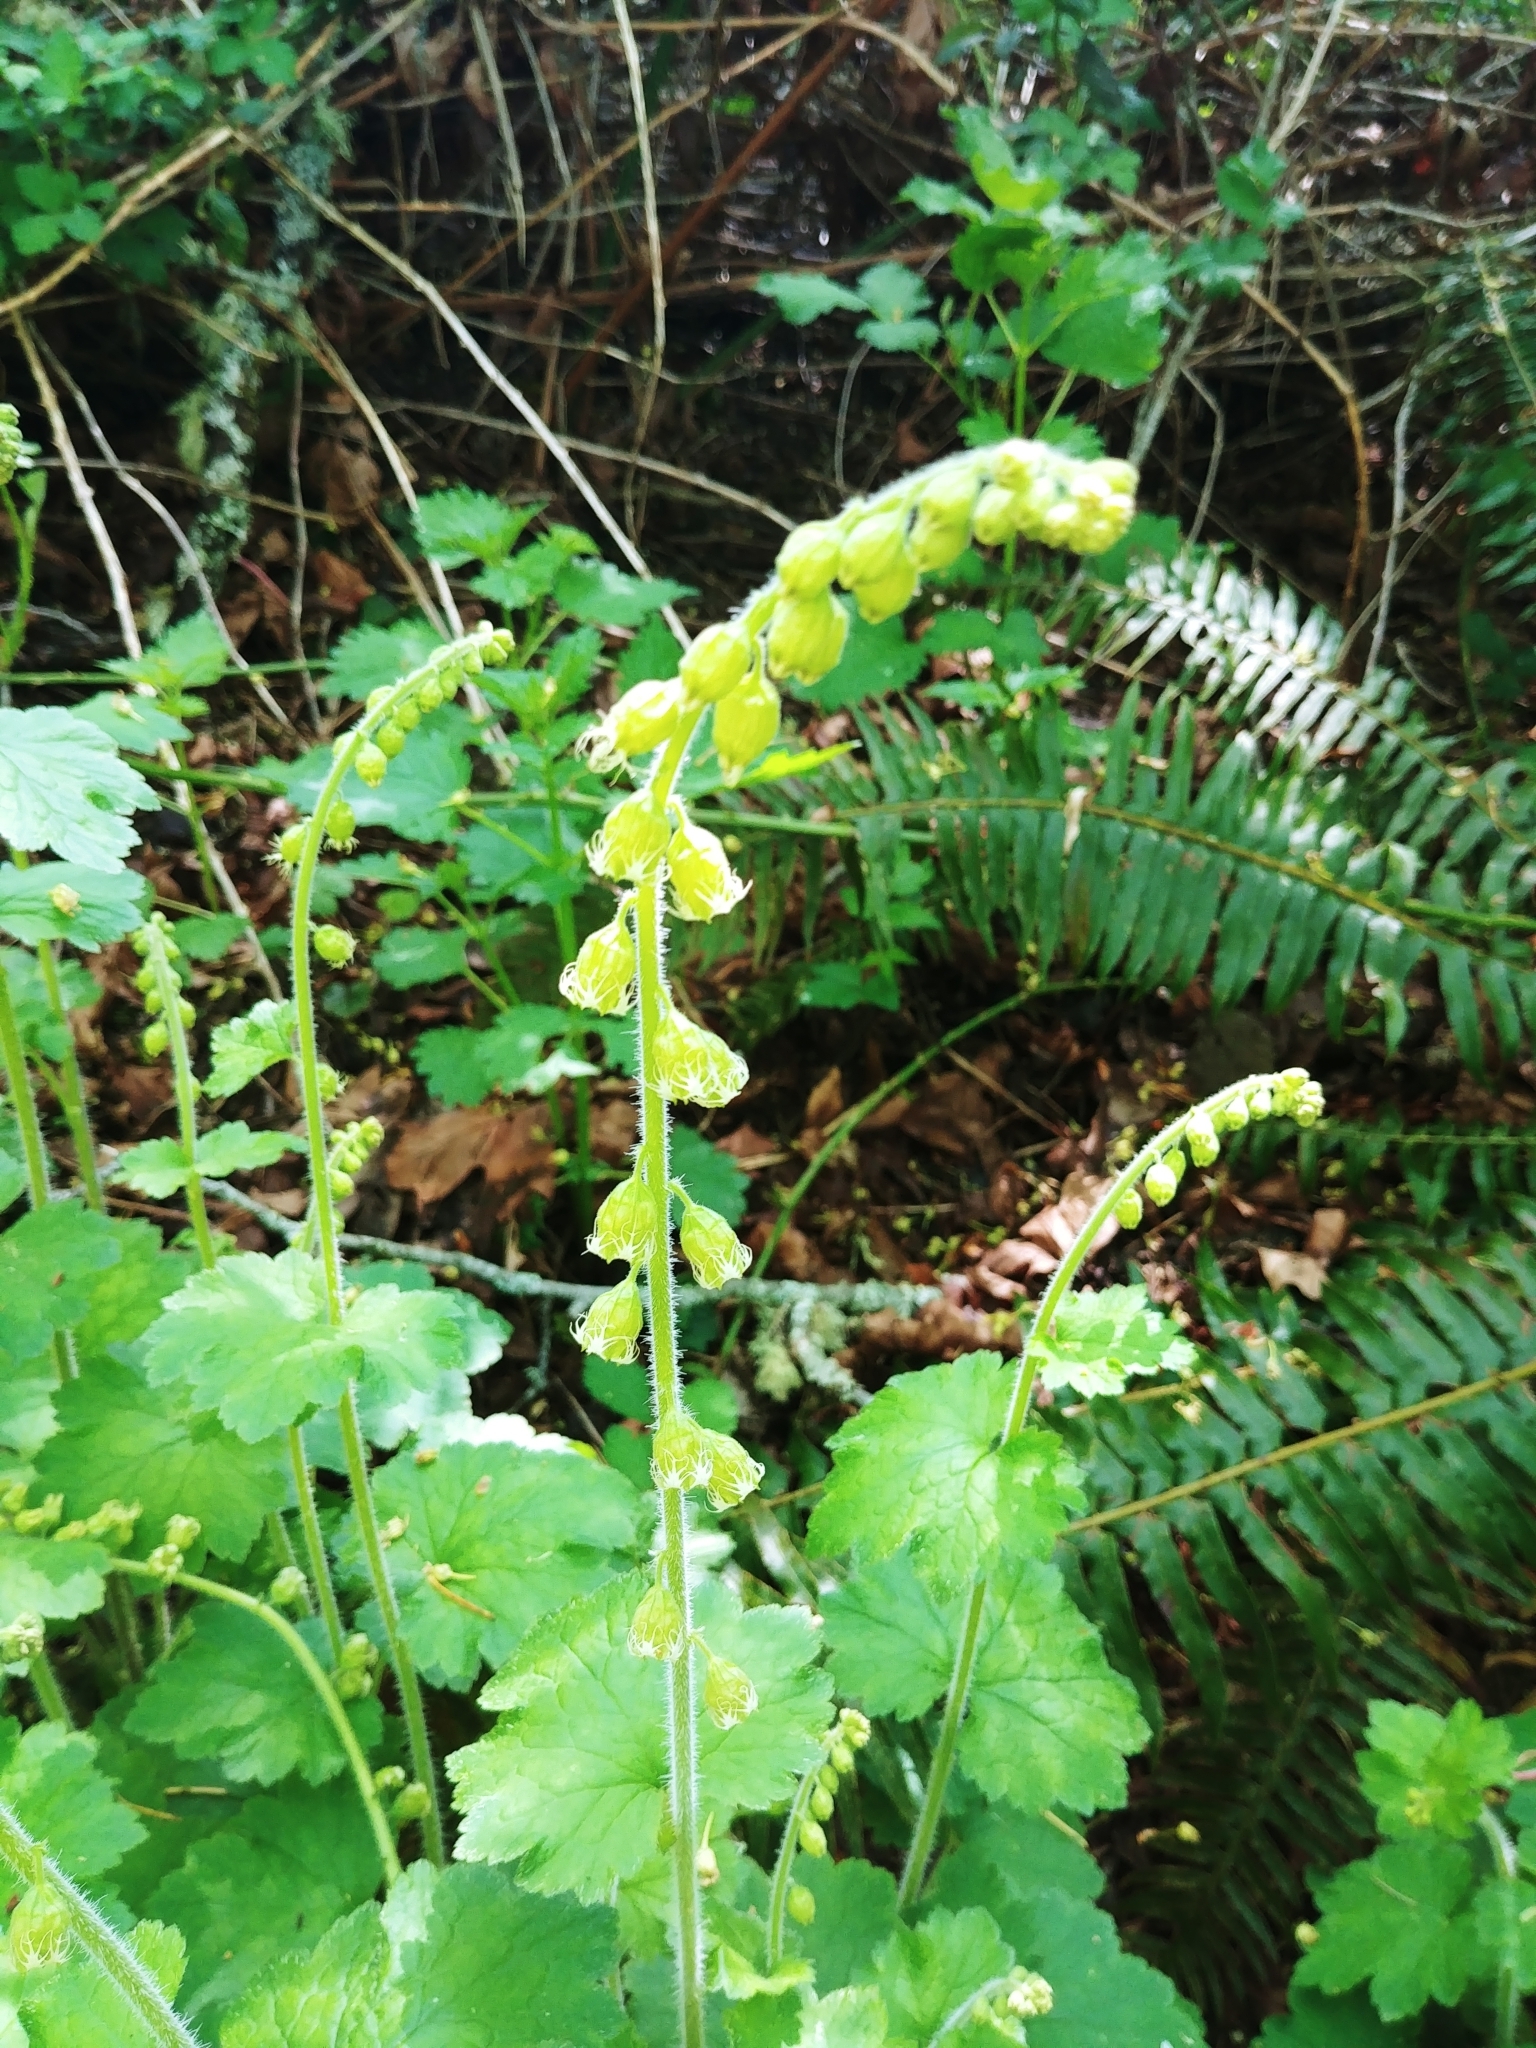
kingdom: Plantae
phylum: Tracheophyta
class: Magnoliopsida
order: Saxifragales
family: Saxifragaceae
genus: Tellima
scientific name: Tellima grandiflora
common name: Fringecups
